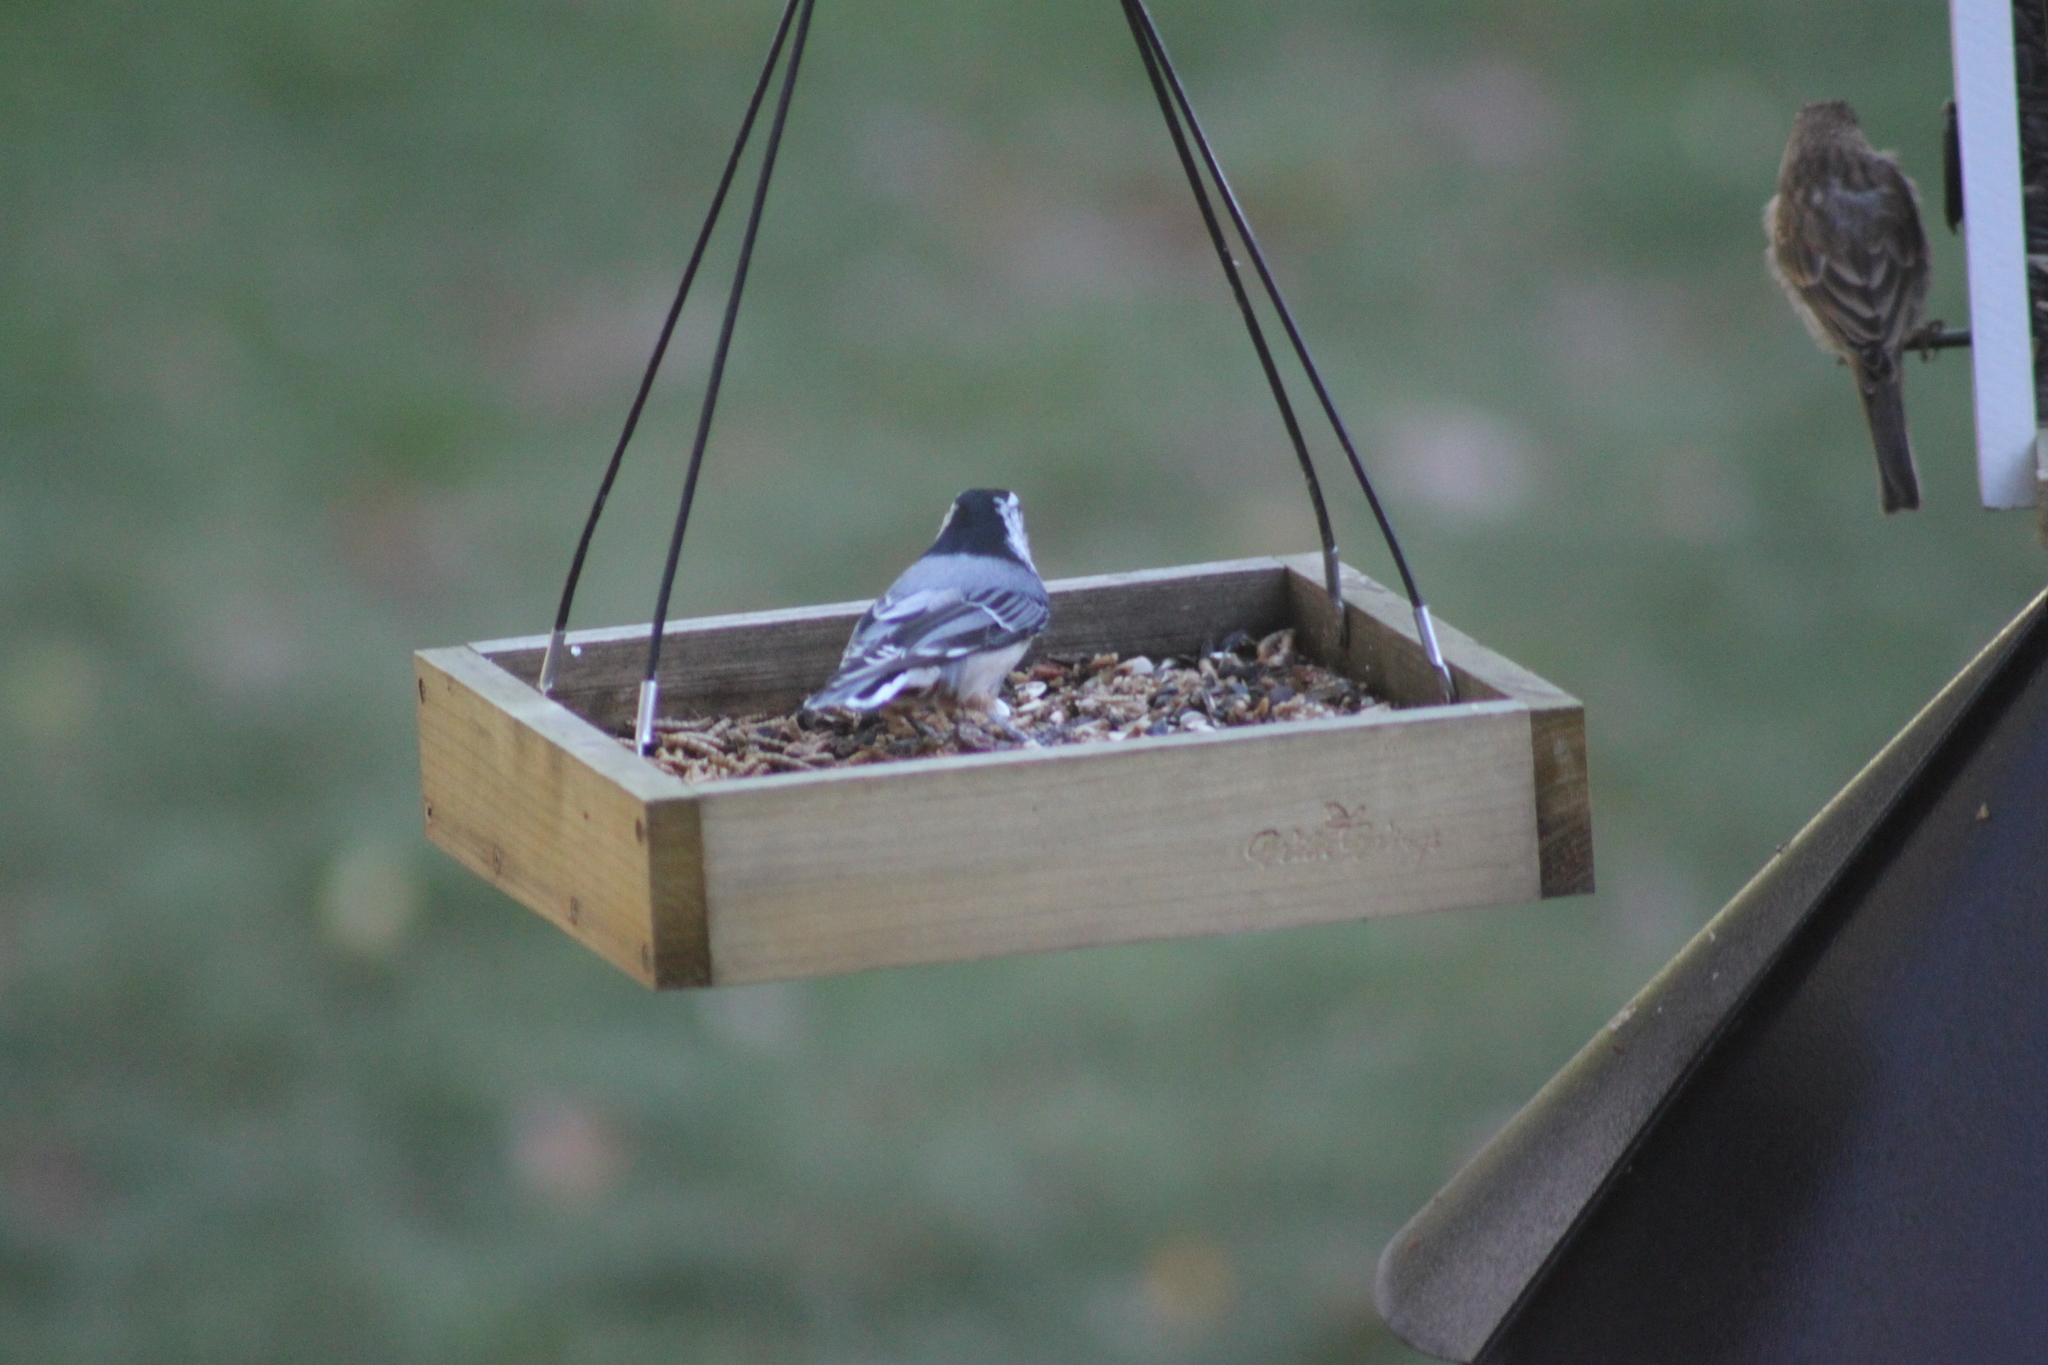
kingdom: Animalia
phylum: Chordata
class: Aves
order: Passeriformes
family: Sittidae
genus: Sitta
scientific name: Sitta carolinensis
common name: White-breasted nuthatch
